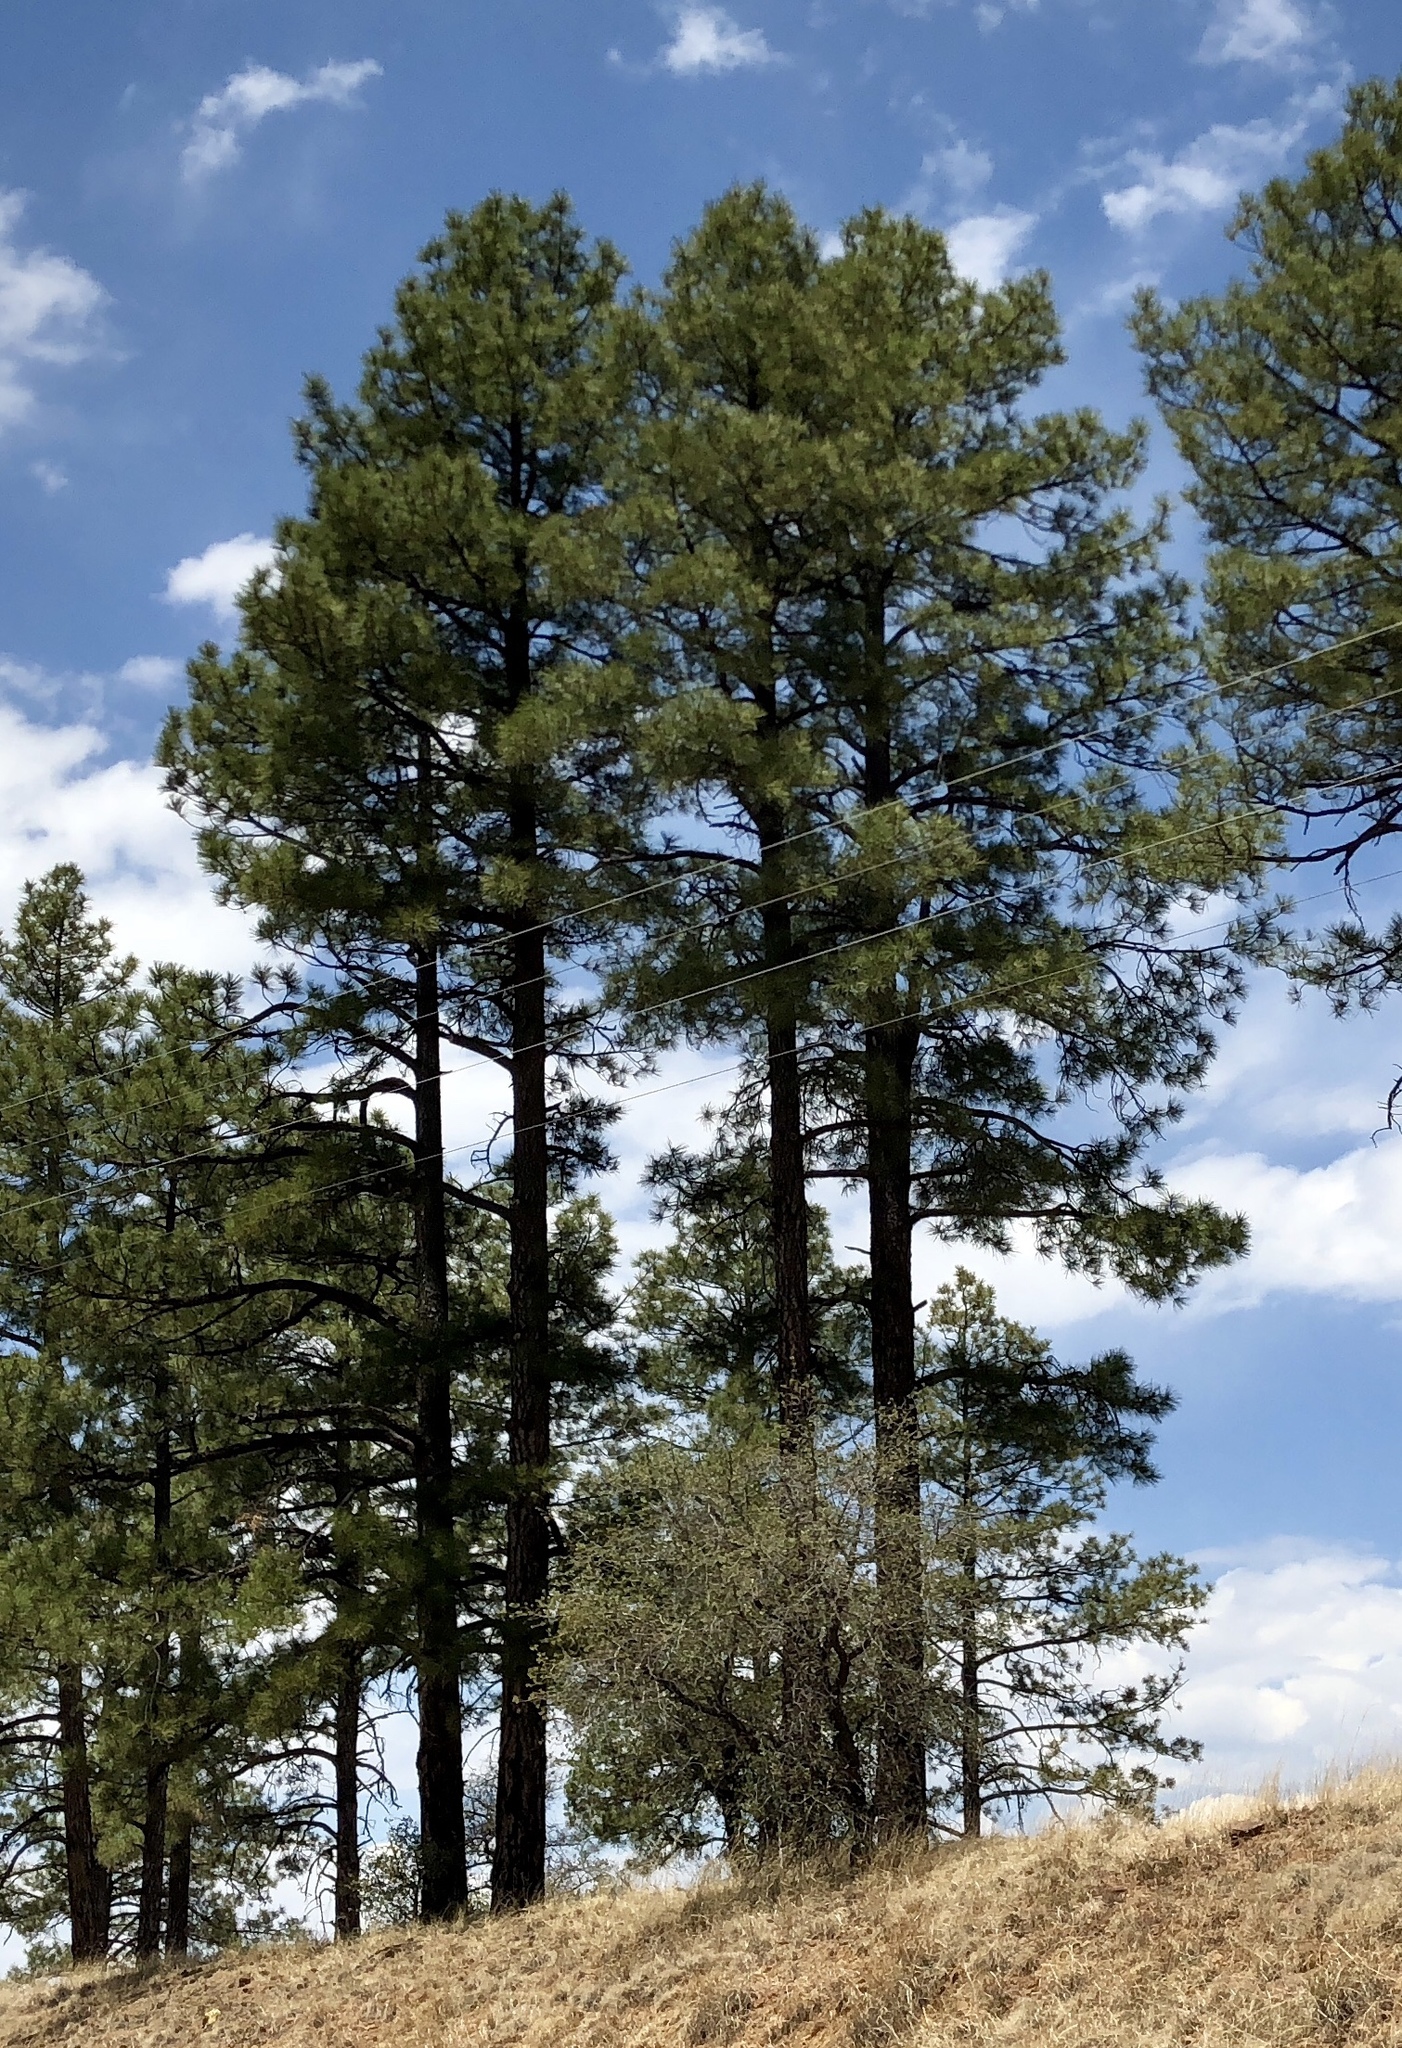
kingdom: Plantae
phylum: Tracheophyta
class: Pinopsida
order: Pinales
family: Pinaceae
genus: Pinus
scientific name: Pinus ponderosa
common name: Western yellow-pine
